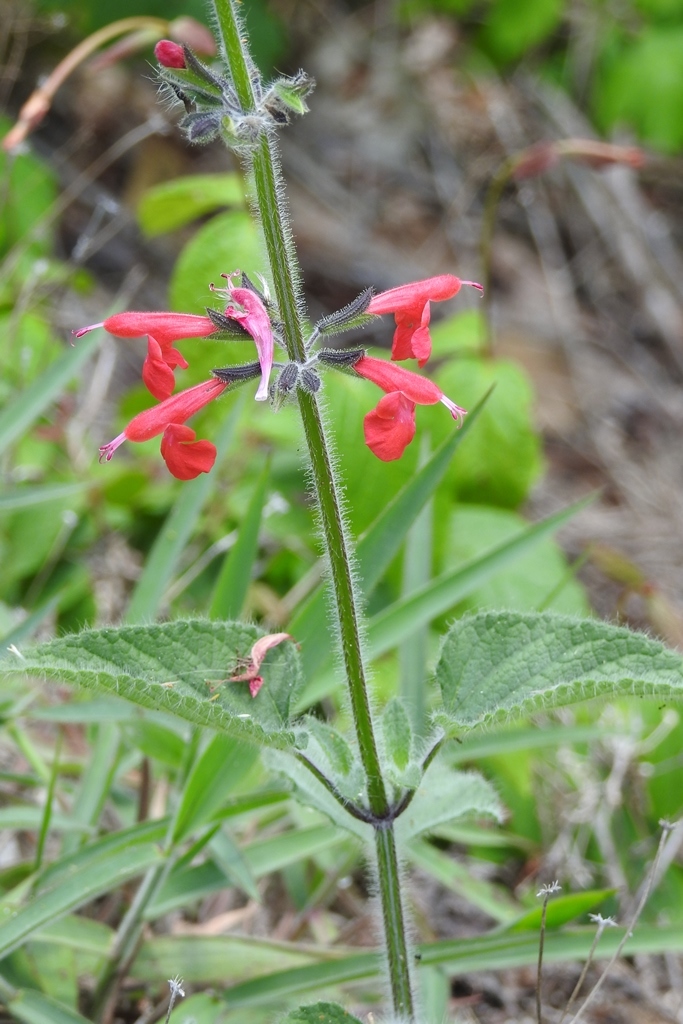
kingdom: Plantae
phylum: Tracheophyta
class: Magnoliopsida
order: Lamiales
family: Lamiaceae
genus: Salvia
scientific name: Salvia coccinea
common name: Blood sage
